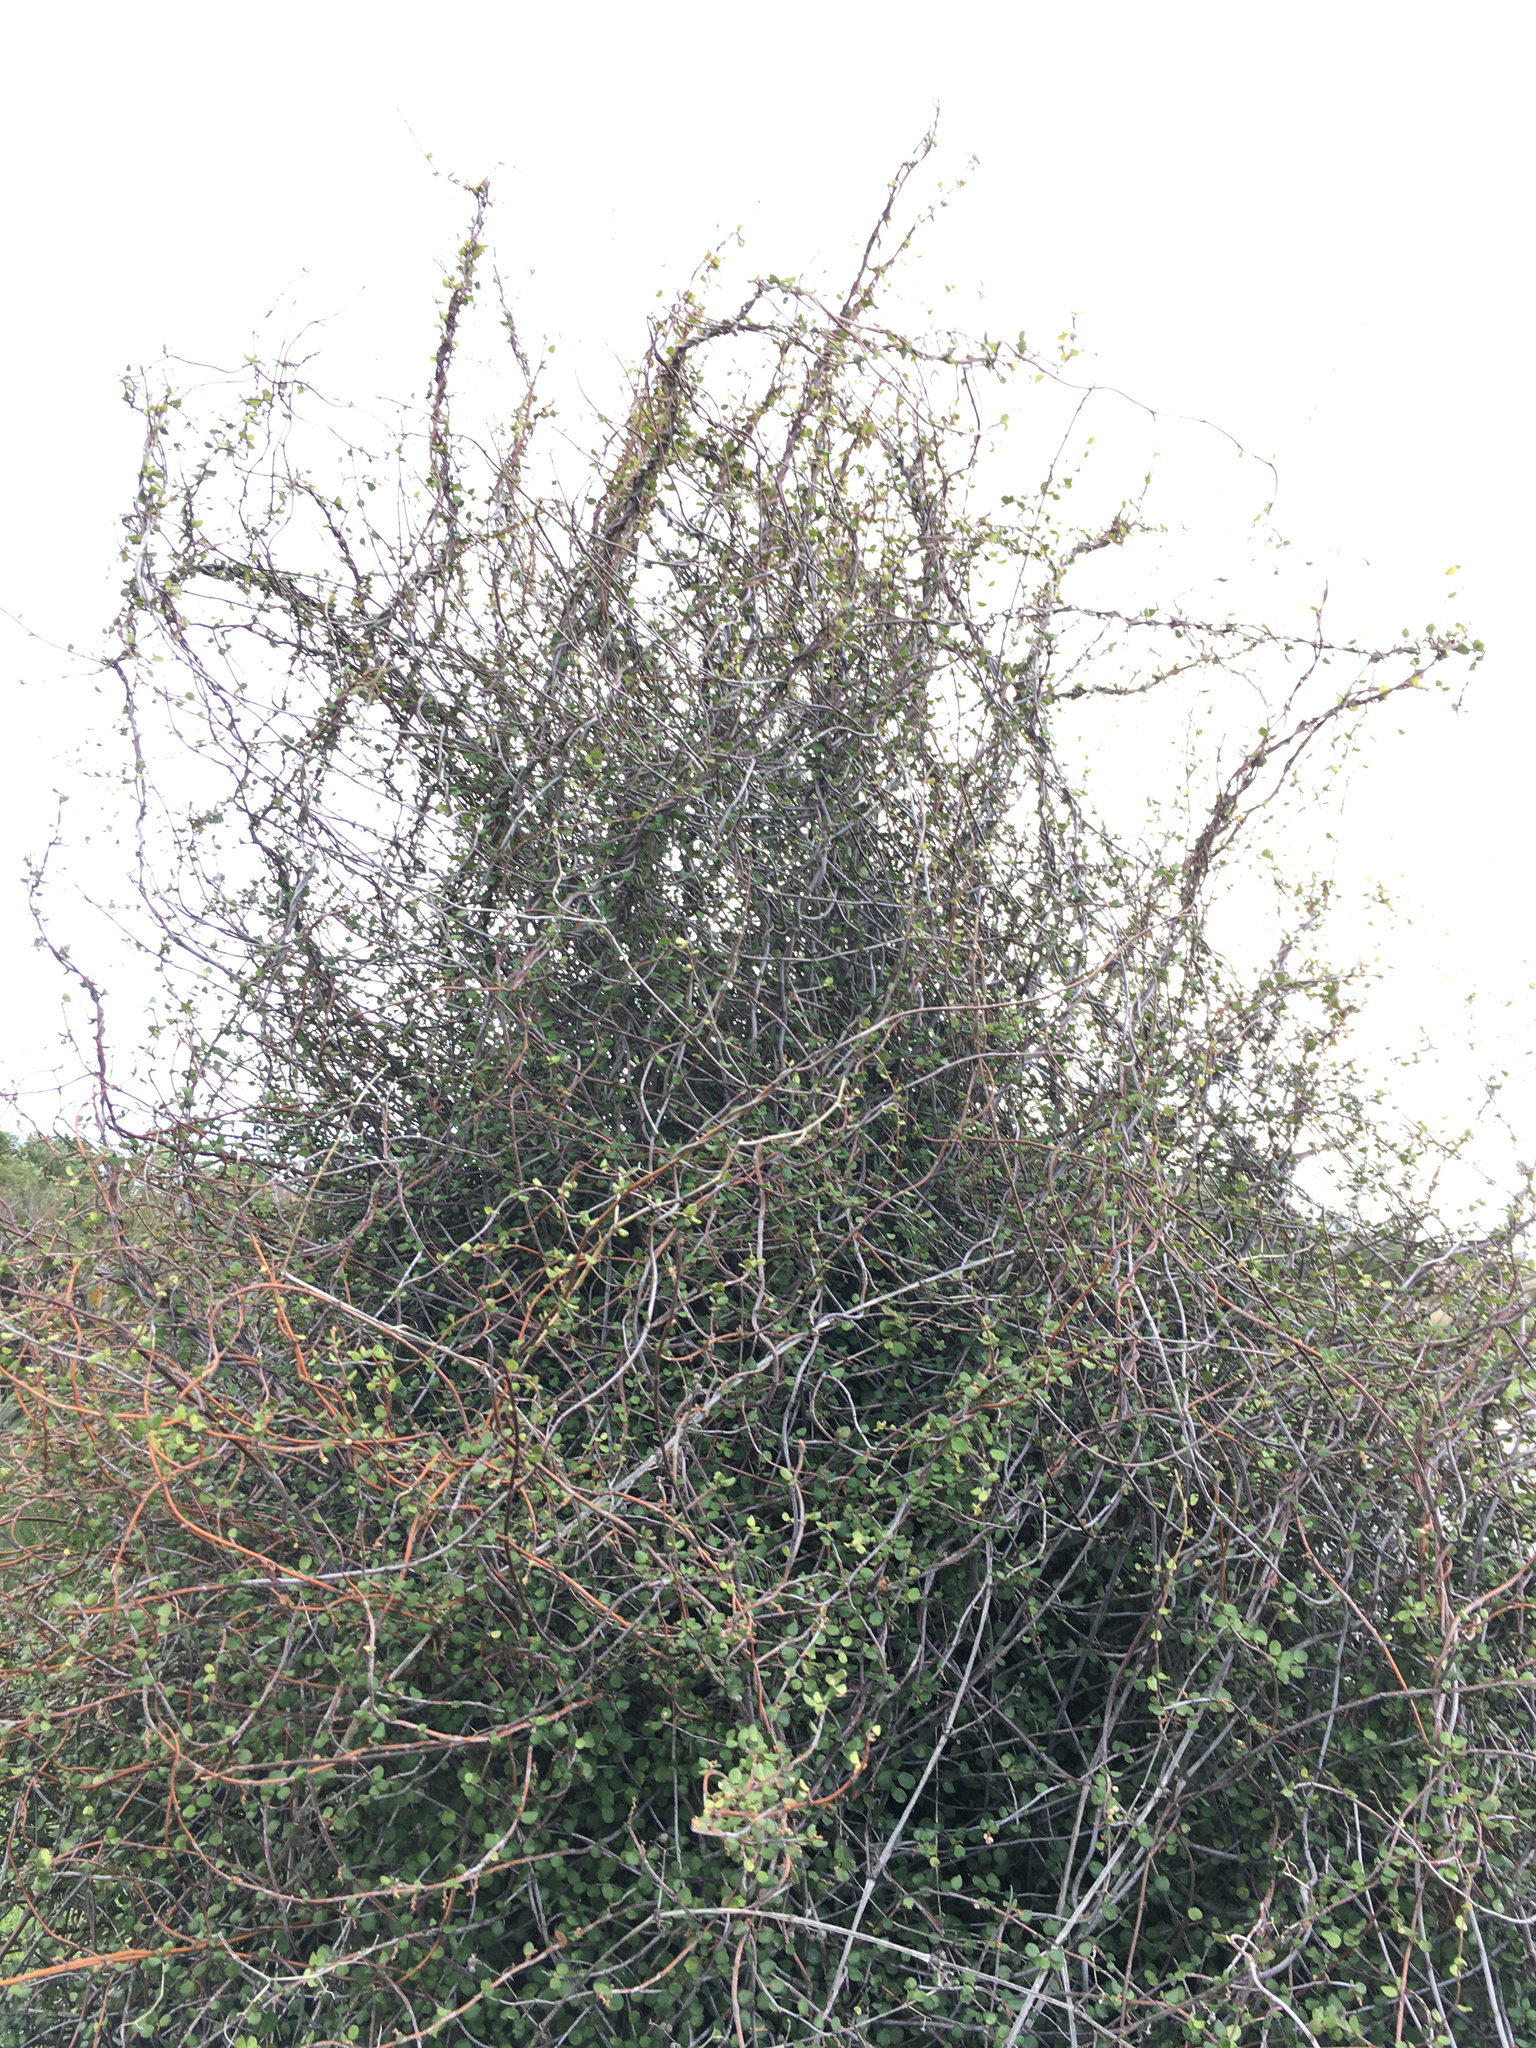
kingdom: Plantae
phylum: Tracheophyta
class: Magnoliopsida
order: Caryophyllales
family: Polygonaceae
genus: Muehlenbeckia
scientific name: Muehlenbeckia complexa
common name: Wireplant
